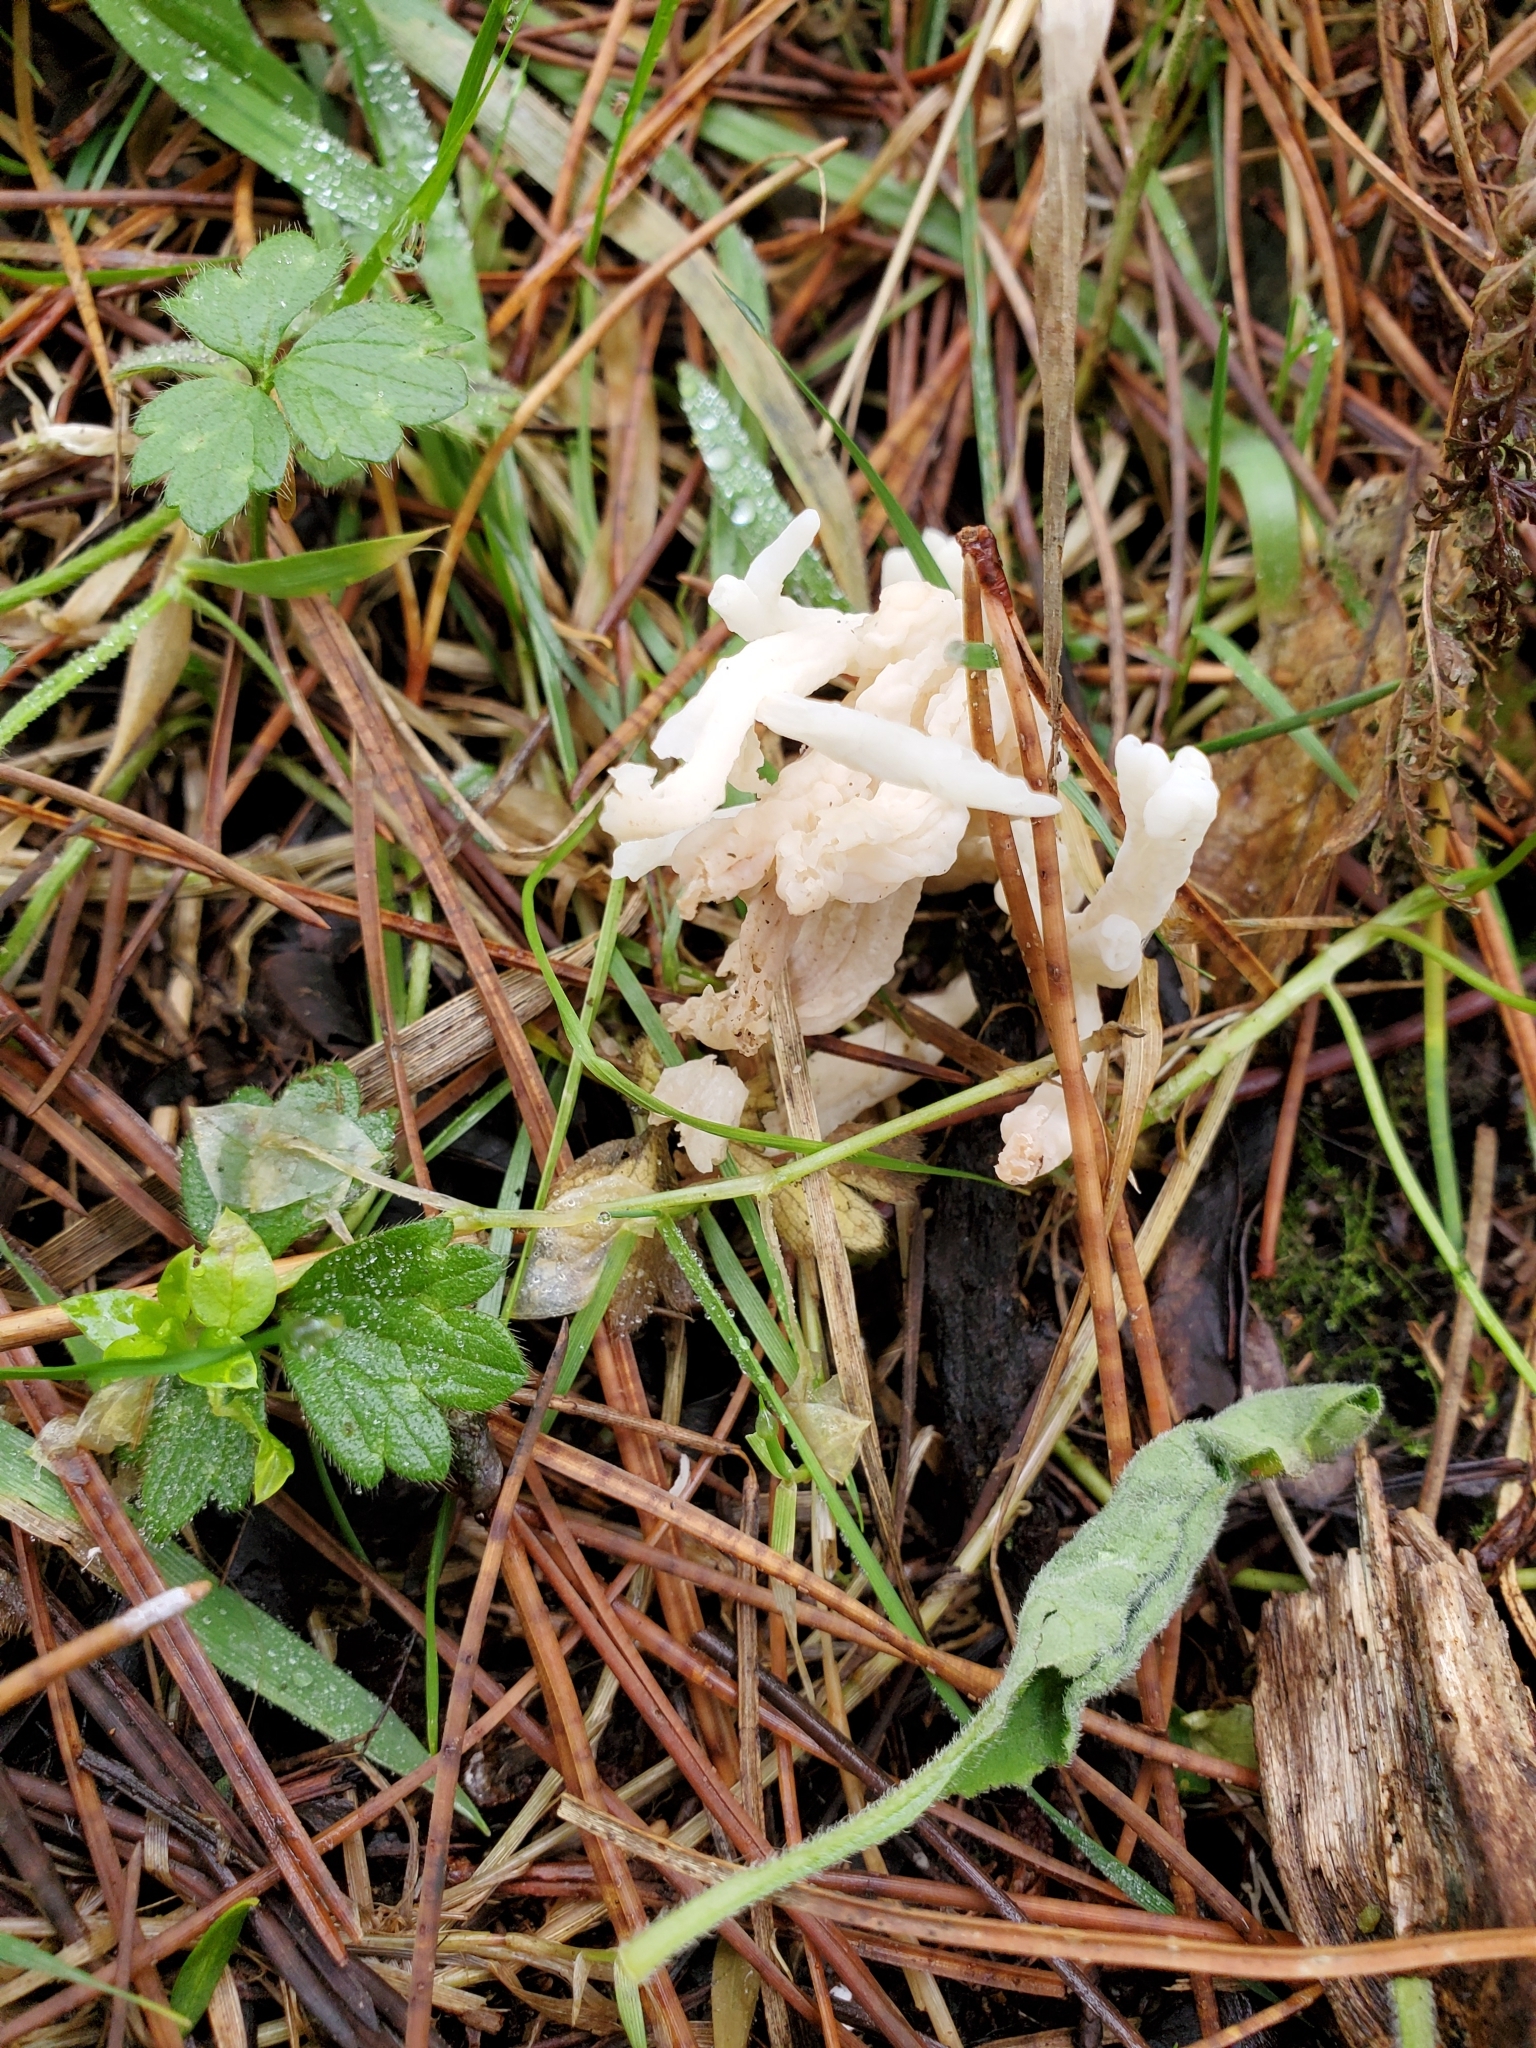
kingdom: Fungi
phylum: Basidiomycota
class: Agaricomycetes
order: Cantharellales
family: Hydnaceae
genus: Clavulina
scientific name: Clavulina rugosa
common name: Wrinkled club
